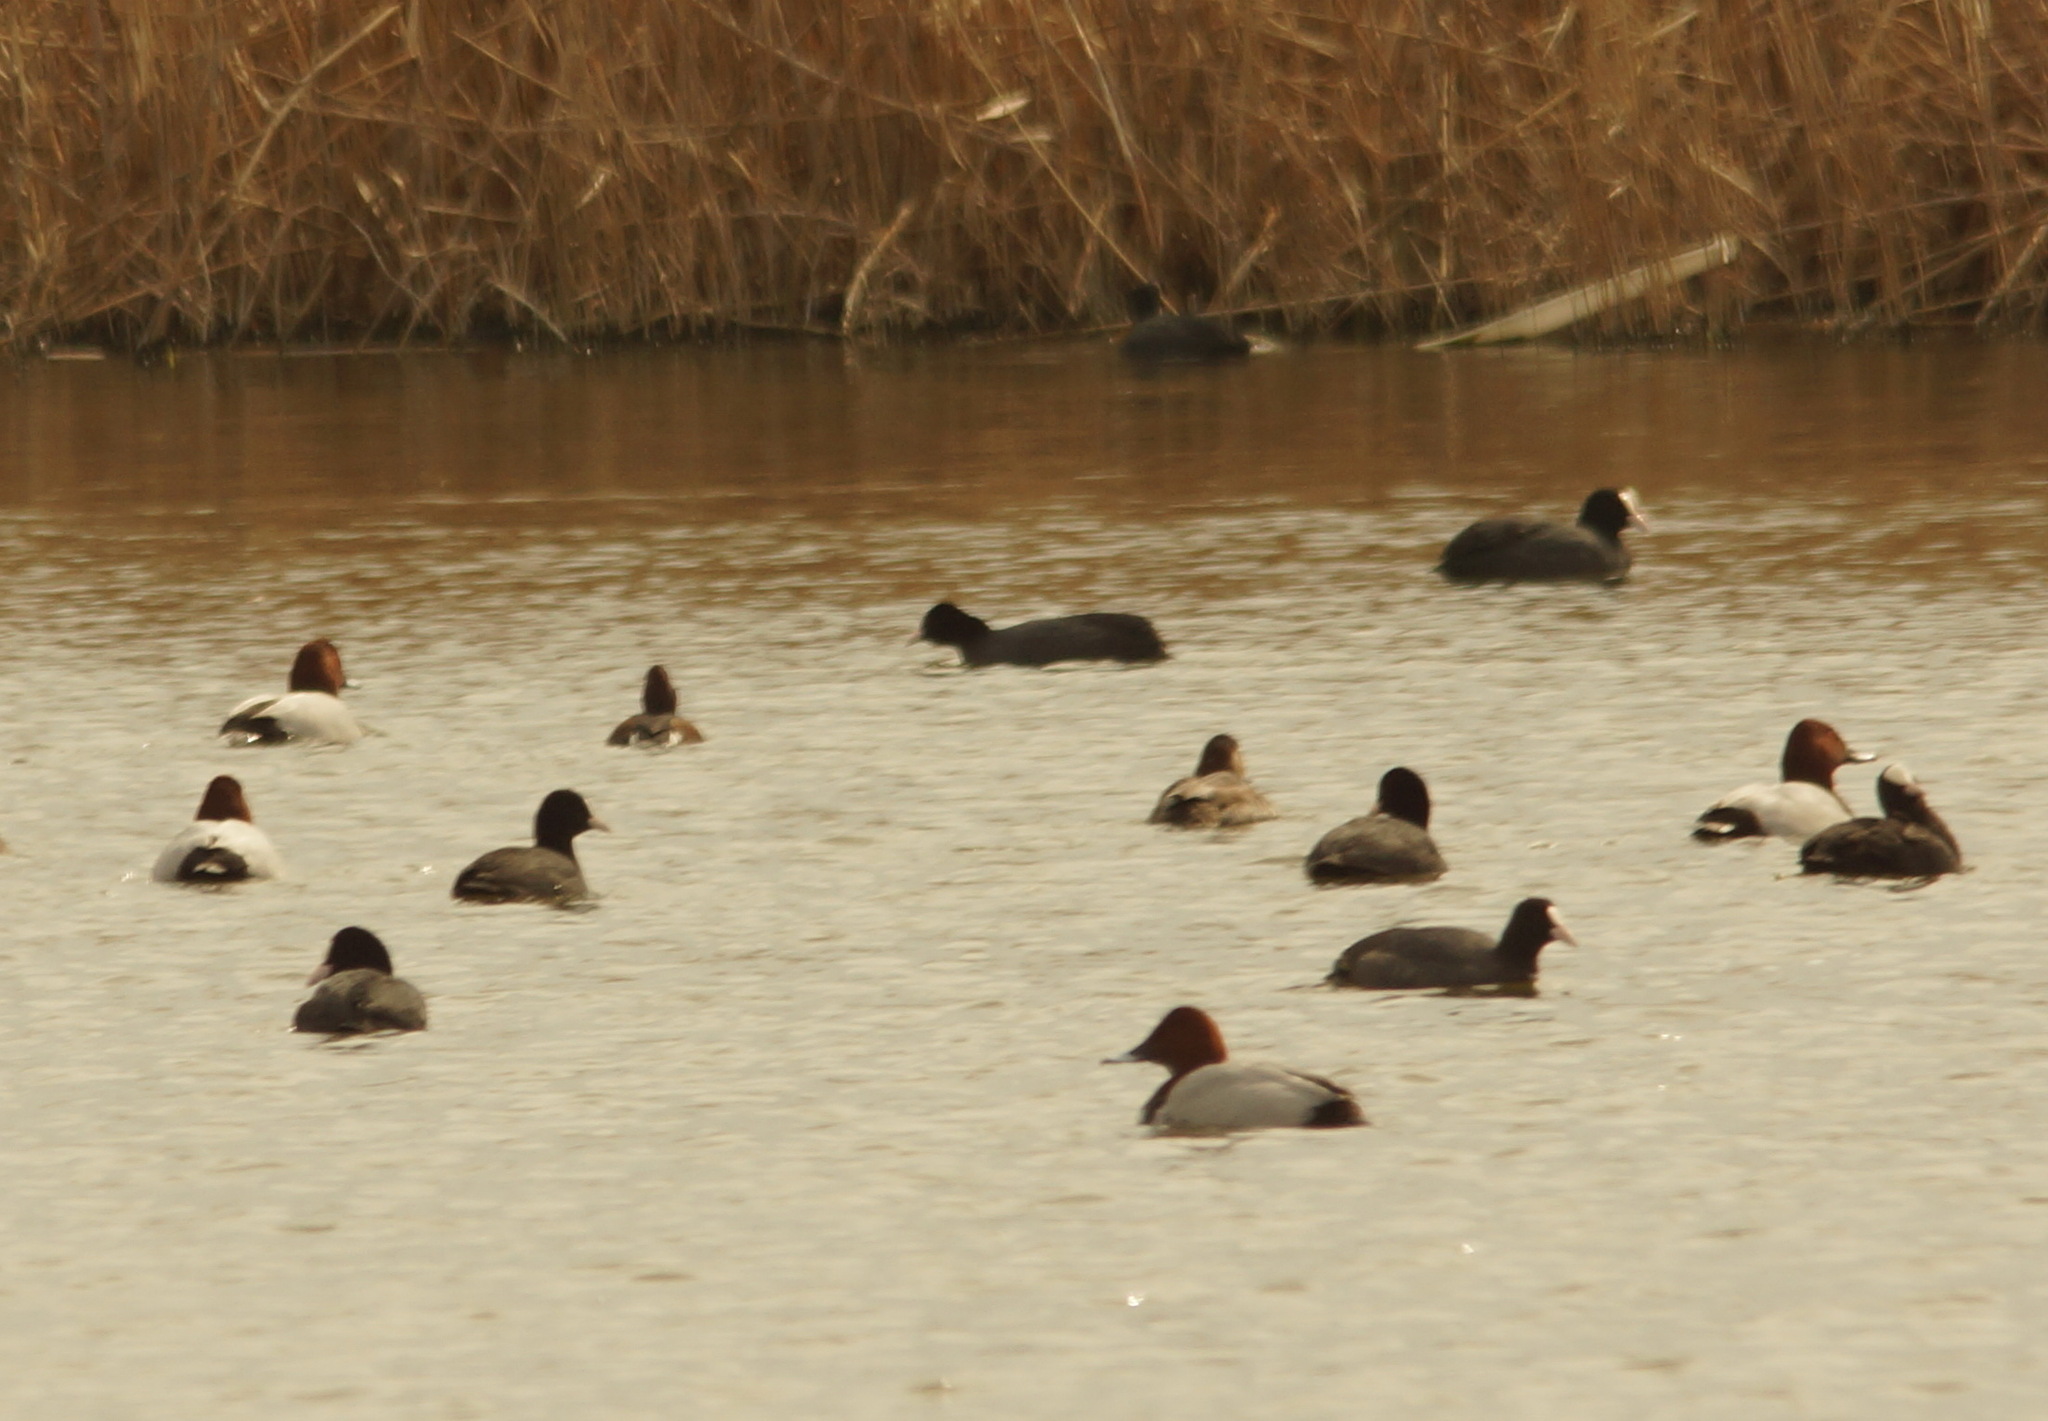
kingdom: Animalia
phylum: Chordata
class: Aves
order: Anseriformes
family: Anatidae
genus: Aythya
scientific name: Aythya nyroca
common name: Ferruginous duck
